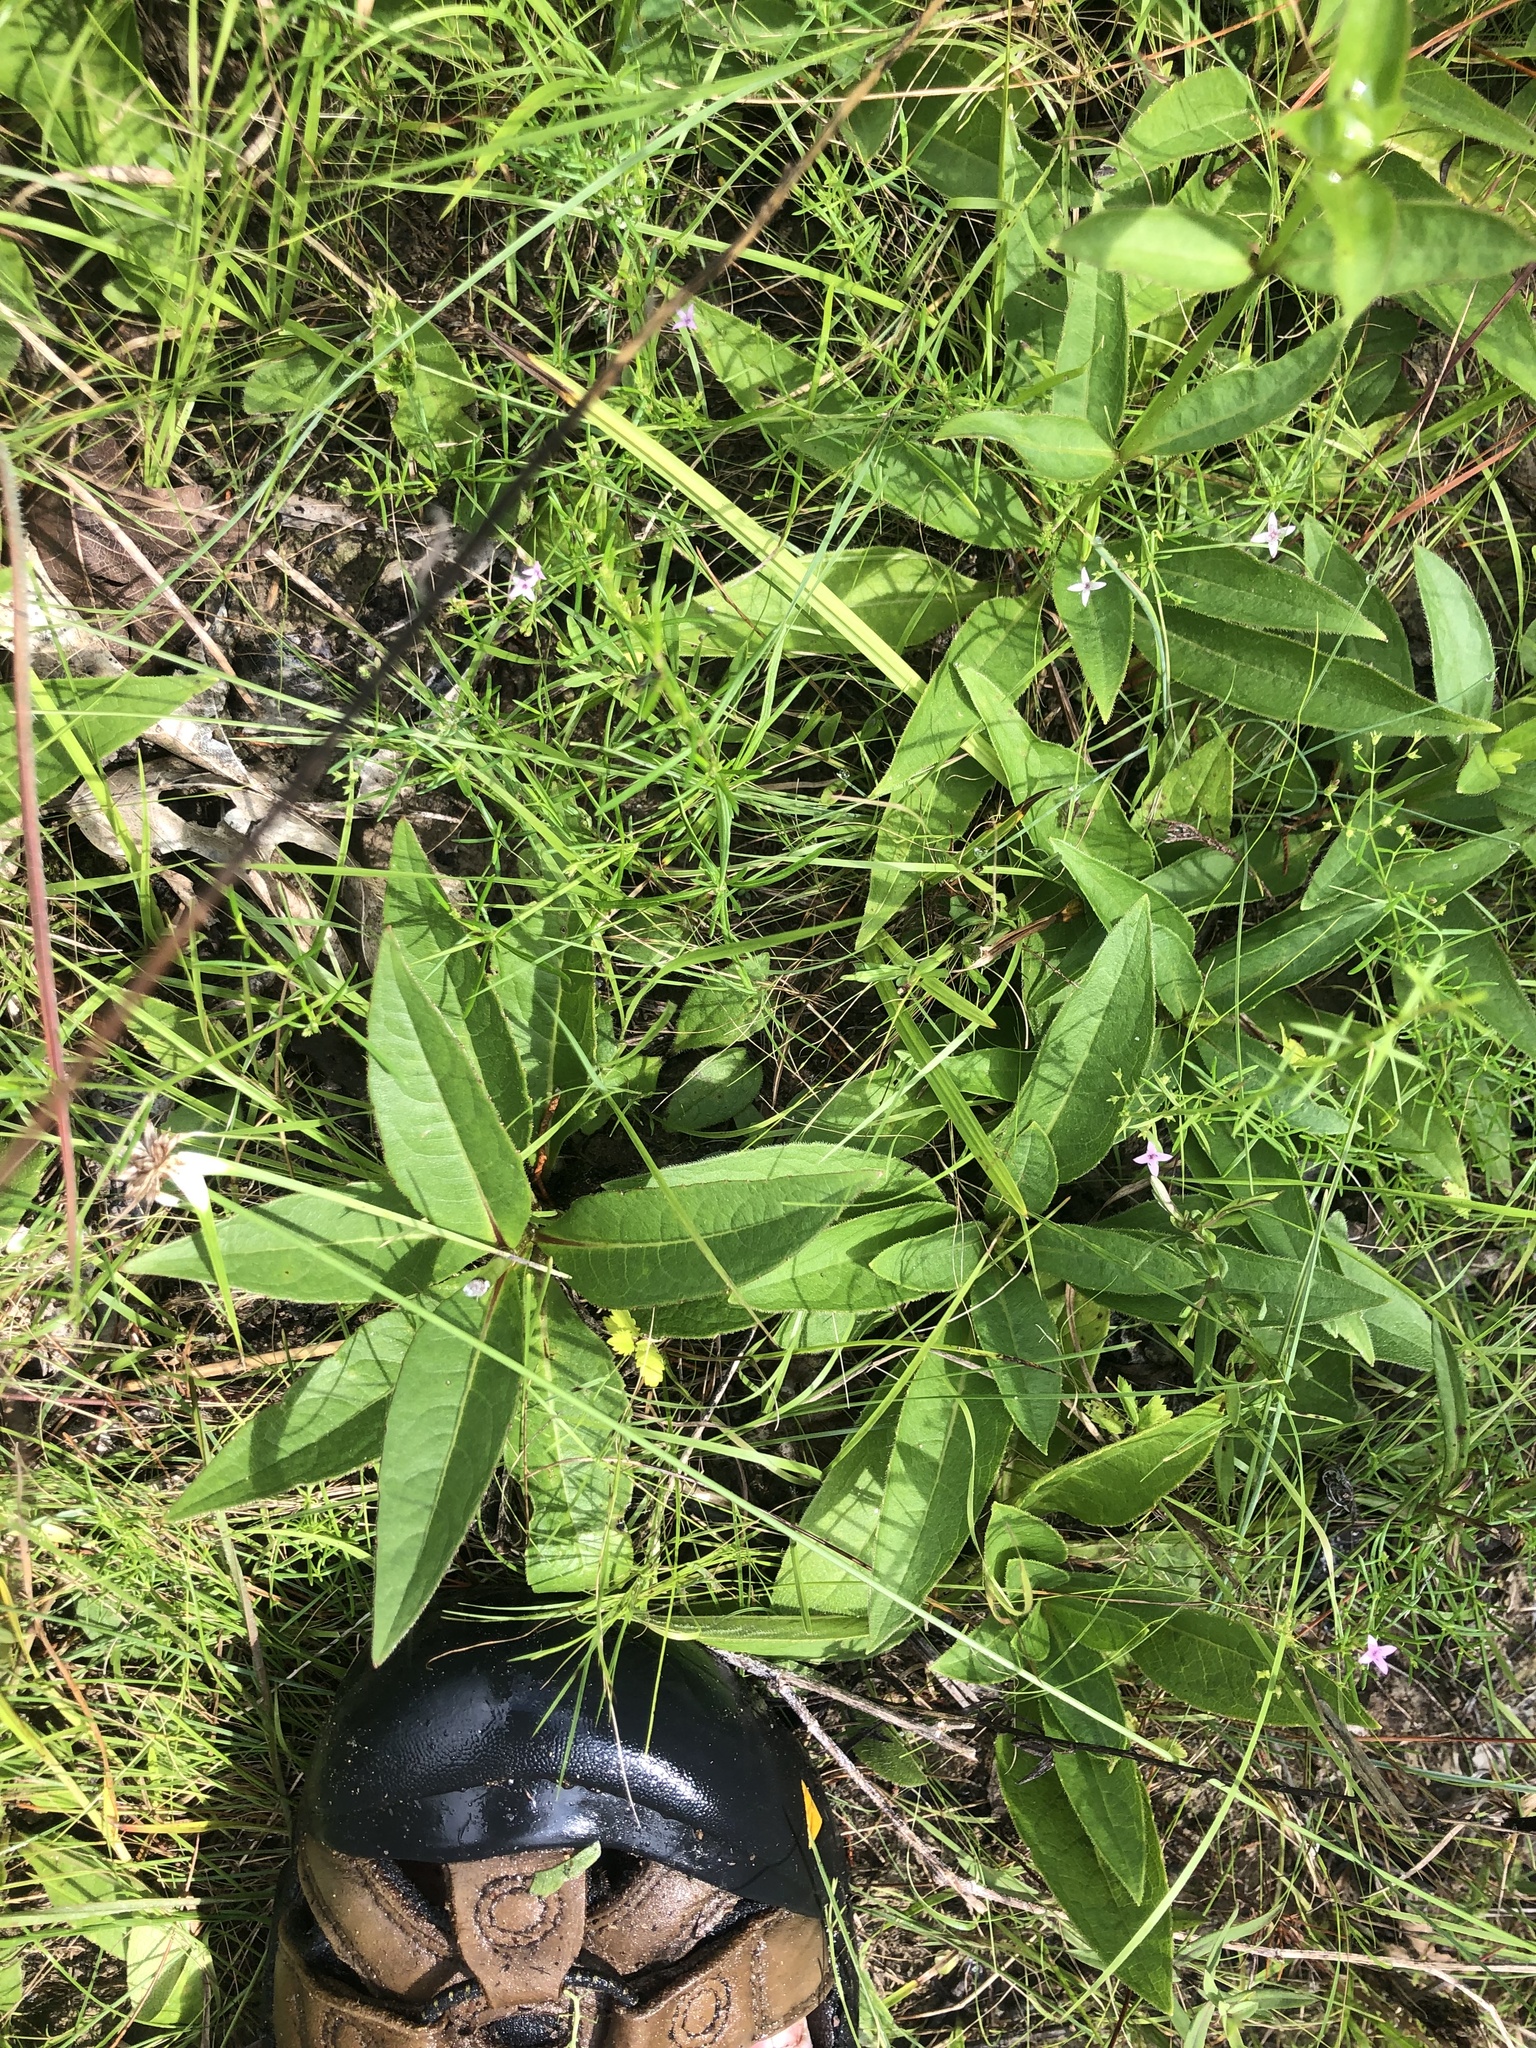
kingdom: Plantae
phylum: Tracheophyta
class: Magnoliopsida
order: Asterales
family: Asteraceae
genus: Silphium
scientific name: Silphium confertifolium
